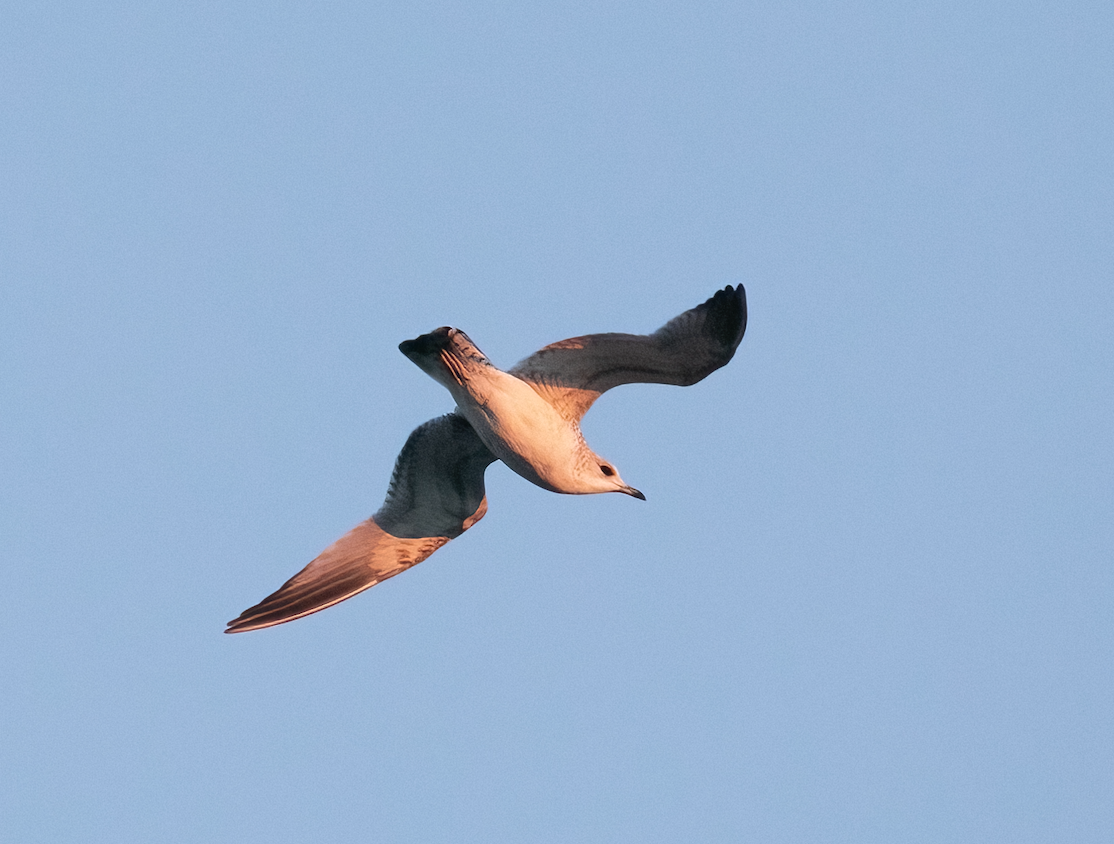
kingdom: Animalia
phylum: Chordata
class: Aves
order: Charadriiformes
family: Laridae
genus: Larus
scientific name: Larus canus
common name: Mew gull
